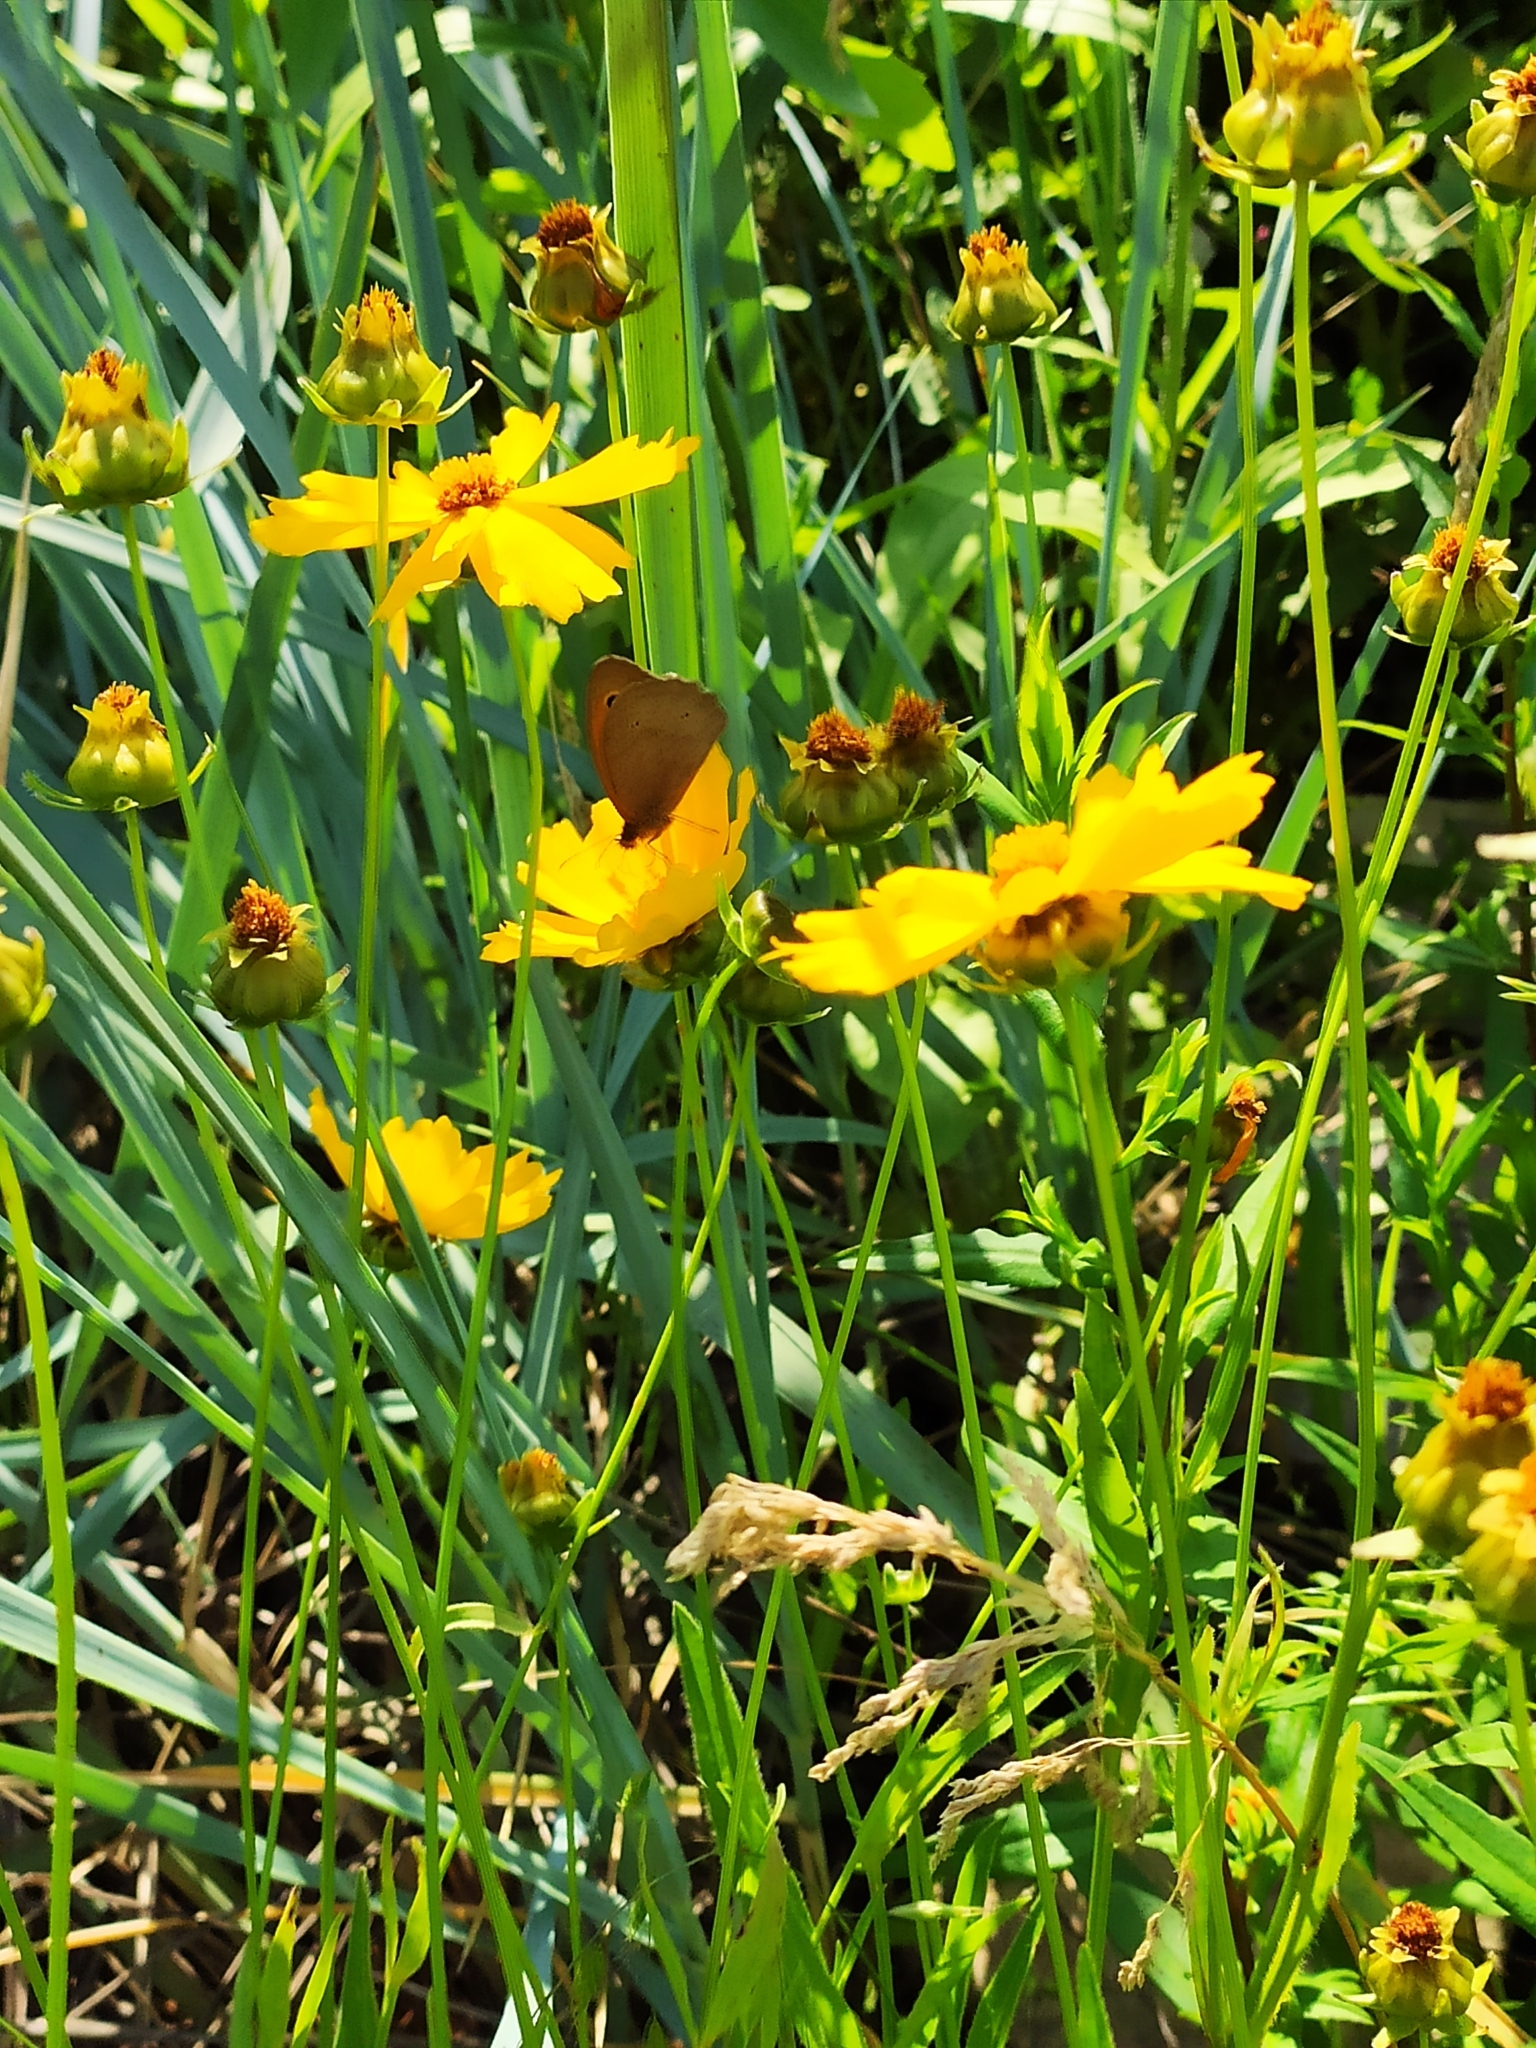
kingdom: Animalia
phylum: Arthropoda
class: Insecta
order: Lepidoptera
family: Nymphalidae
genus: Maniola
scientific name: Maniola jurtina
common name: Meadow brown
